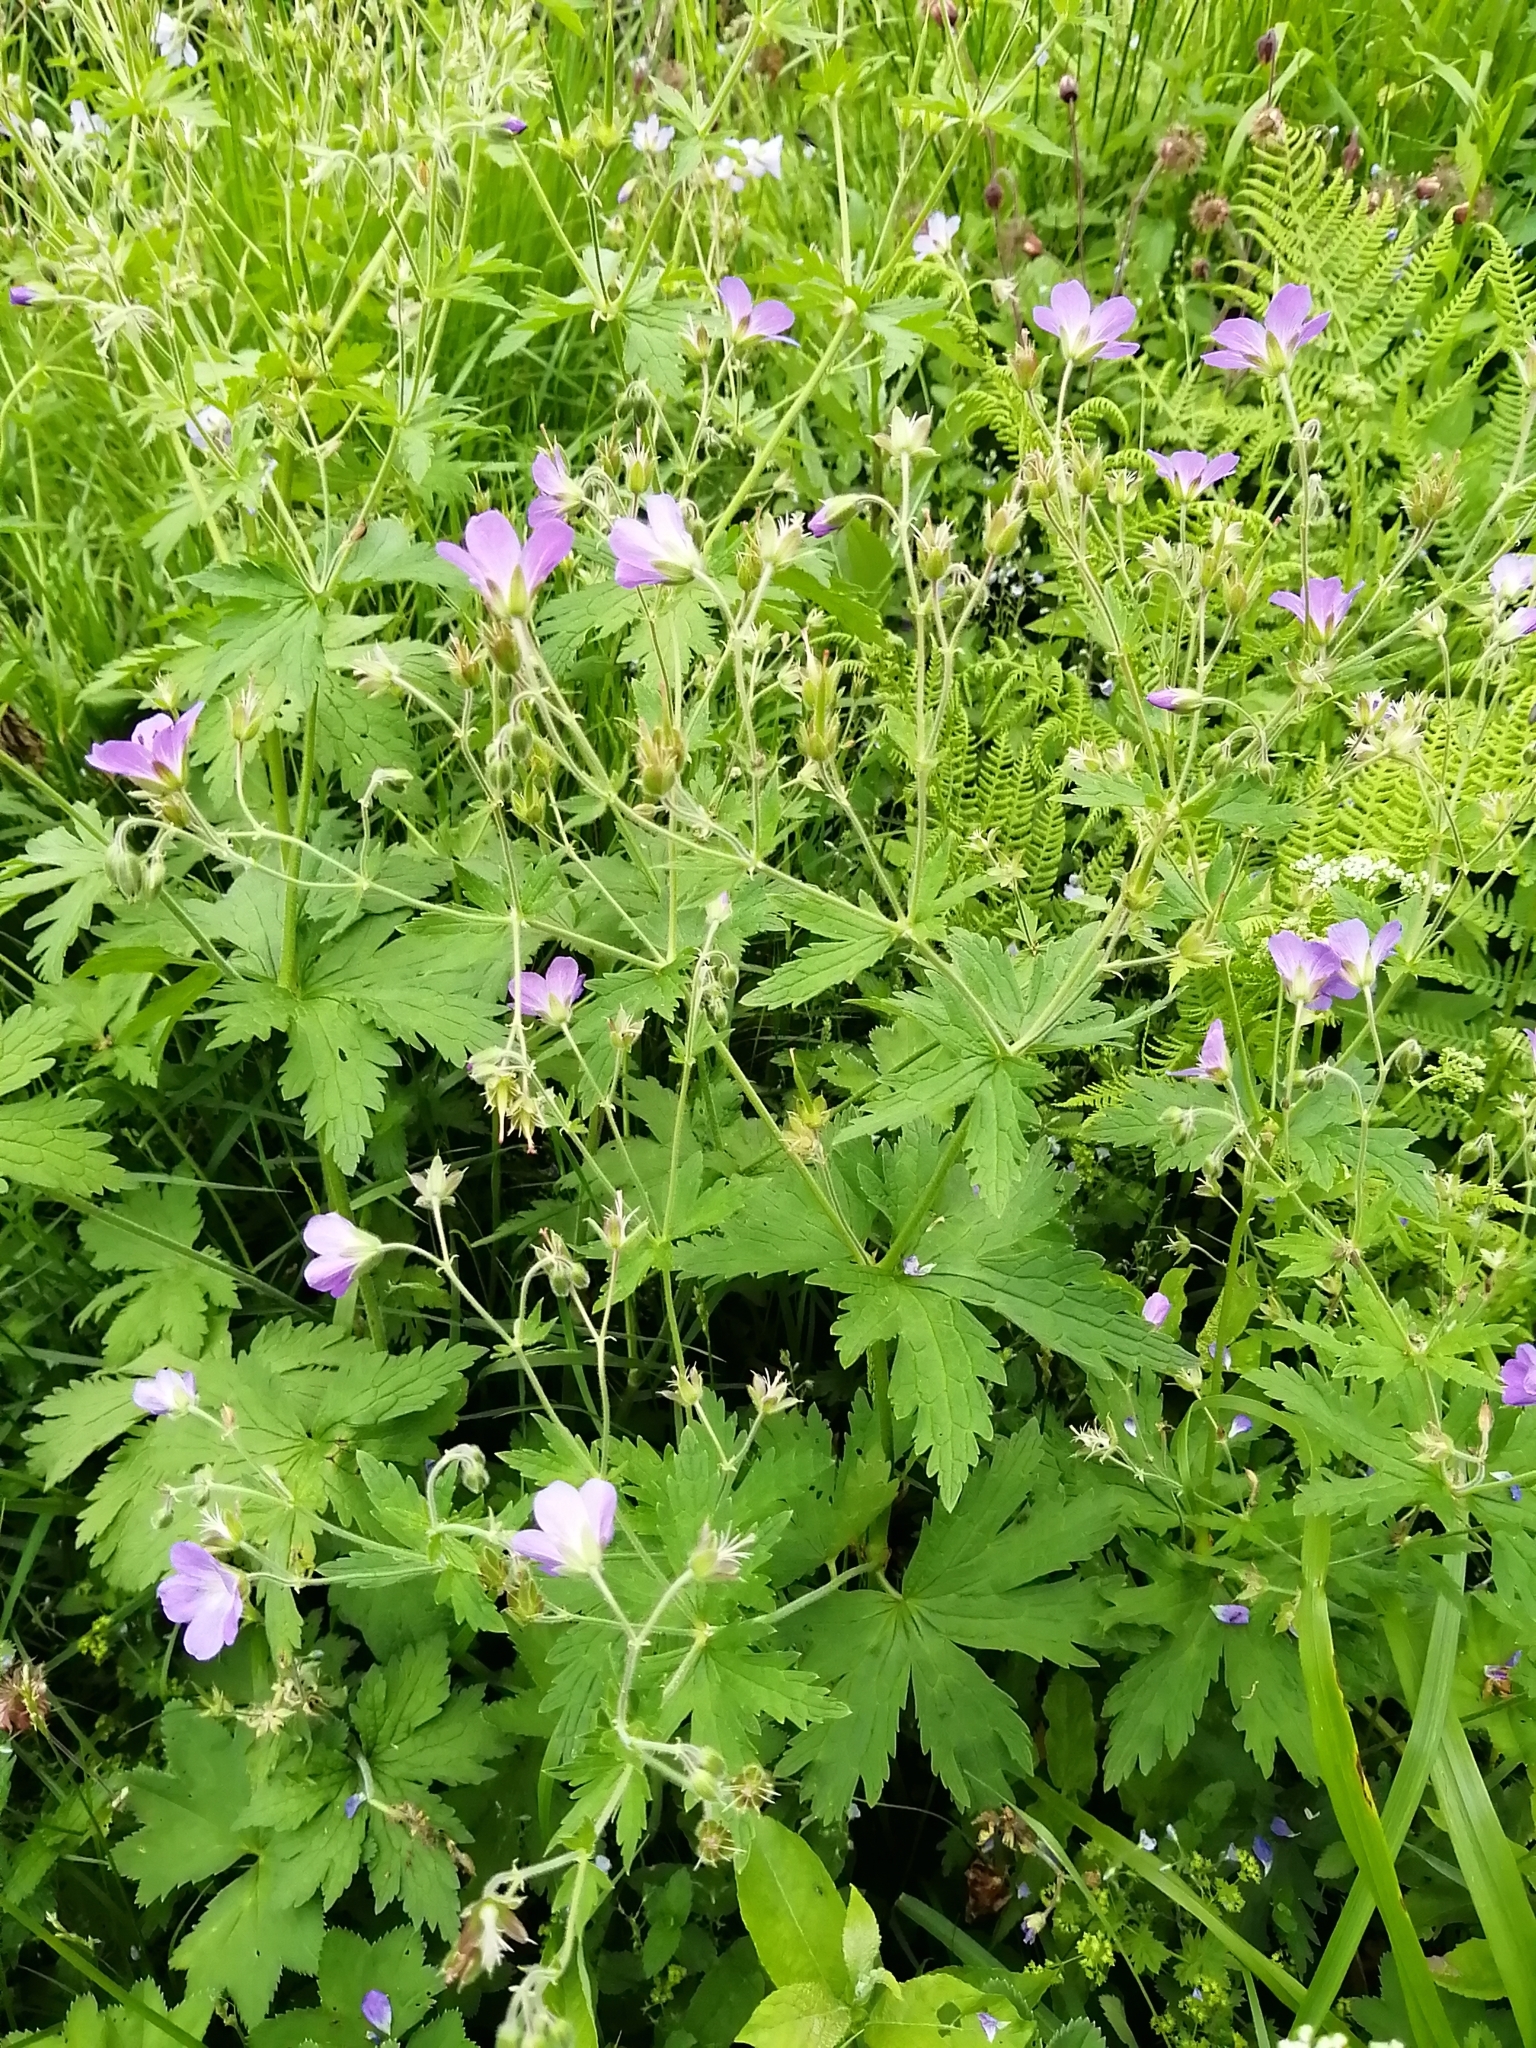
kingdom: Plantae
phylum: Tracheophyta
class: Magnoliopsida
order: Geraniales
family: Geraniaceae
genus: Geranium
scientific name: Geranium sylvaticum
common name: Wood crane's-bill
